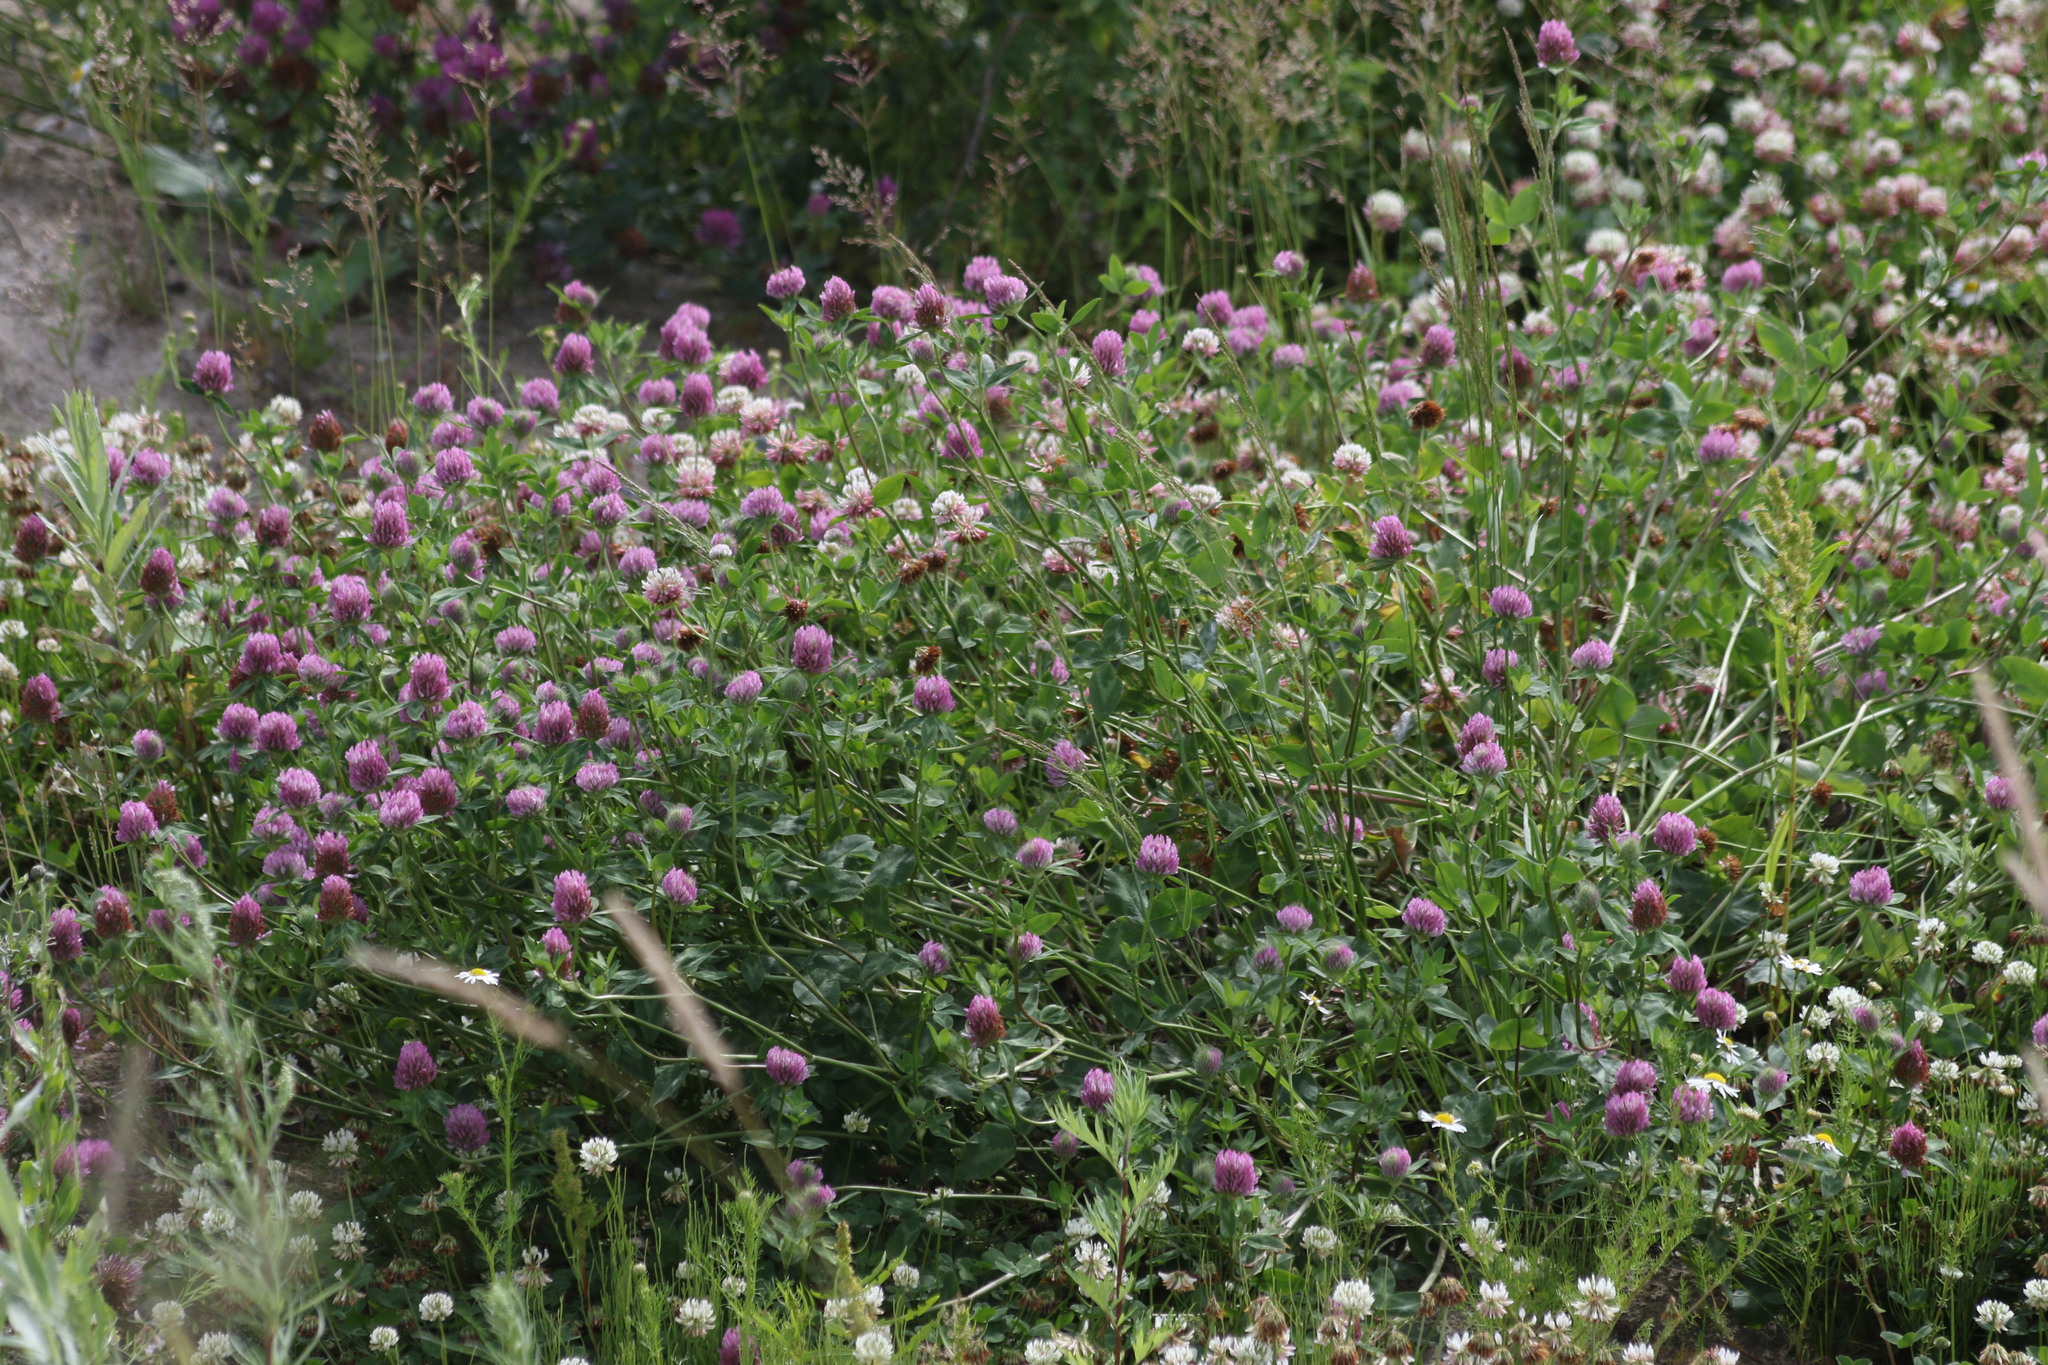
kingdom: Plantae
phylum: Tracheophyta
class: Magnoliopsida
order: Fabales
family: Fabaceae
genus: Trifolium
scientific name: Trifolium pratense
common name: Red clover
